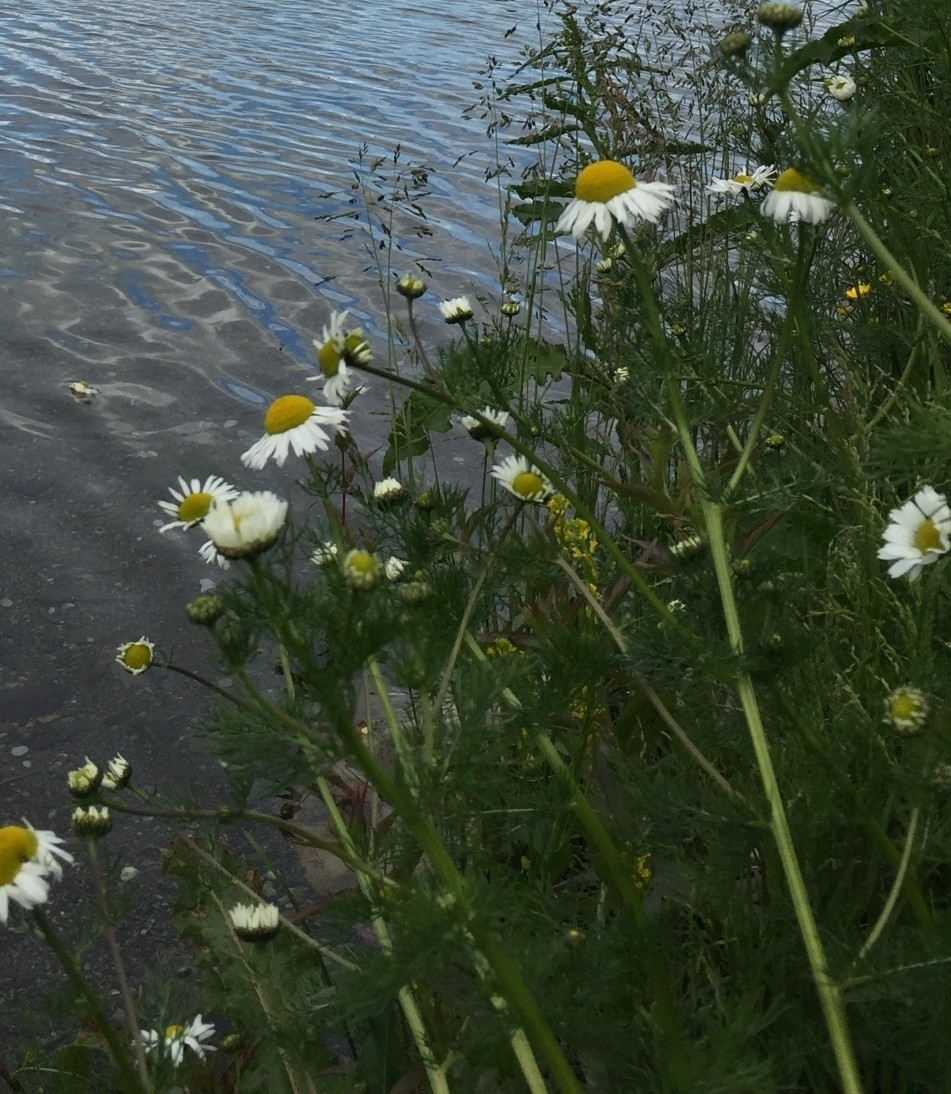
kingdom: Plantae
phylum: Tracheophyta
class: Magnoliopsida
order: Asterales
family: Asteraceae
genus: Tripleurospermum
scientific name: Tripleurospermum inodorum
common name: Scentless mayweed
